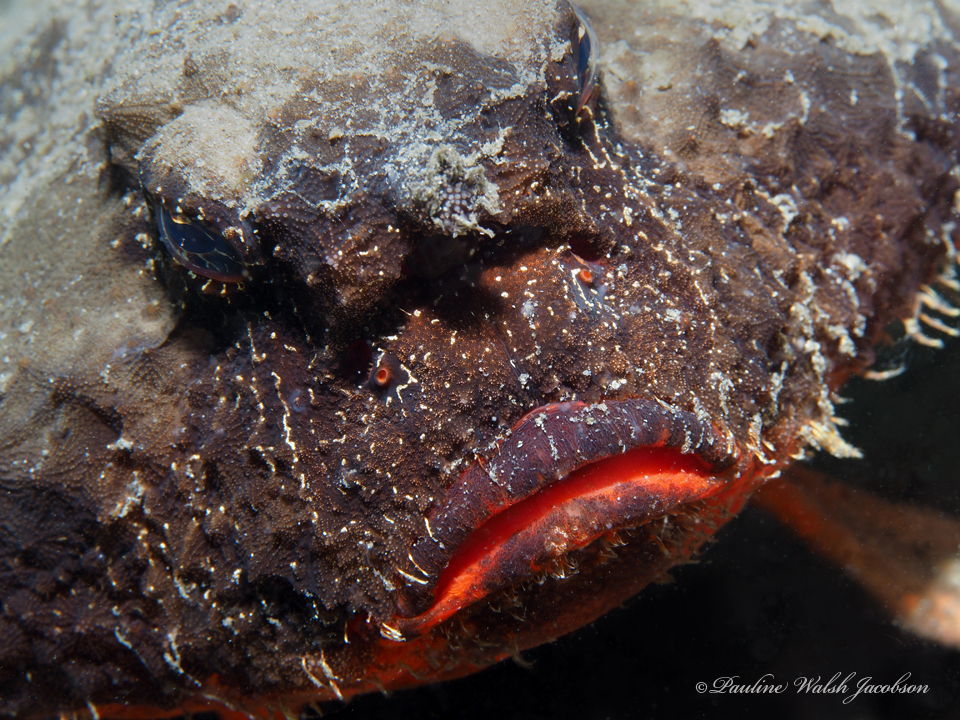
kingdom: Animalia
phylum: Chordata
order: Lophiiformes
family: Ogcocephalidae
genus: Ogcocephalus
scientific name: Ogcocephalus nasutus
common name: Shortnose batfish
